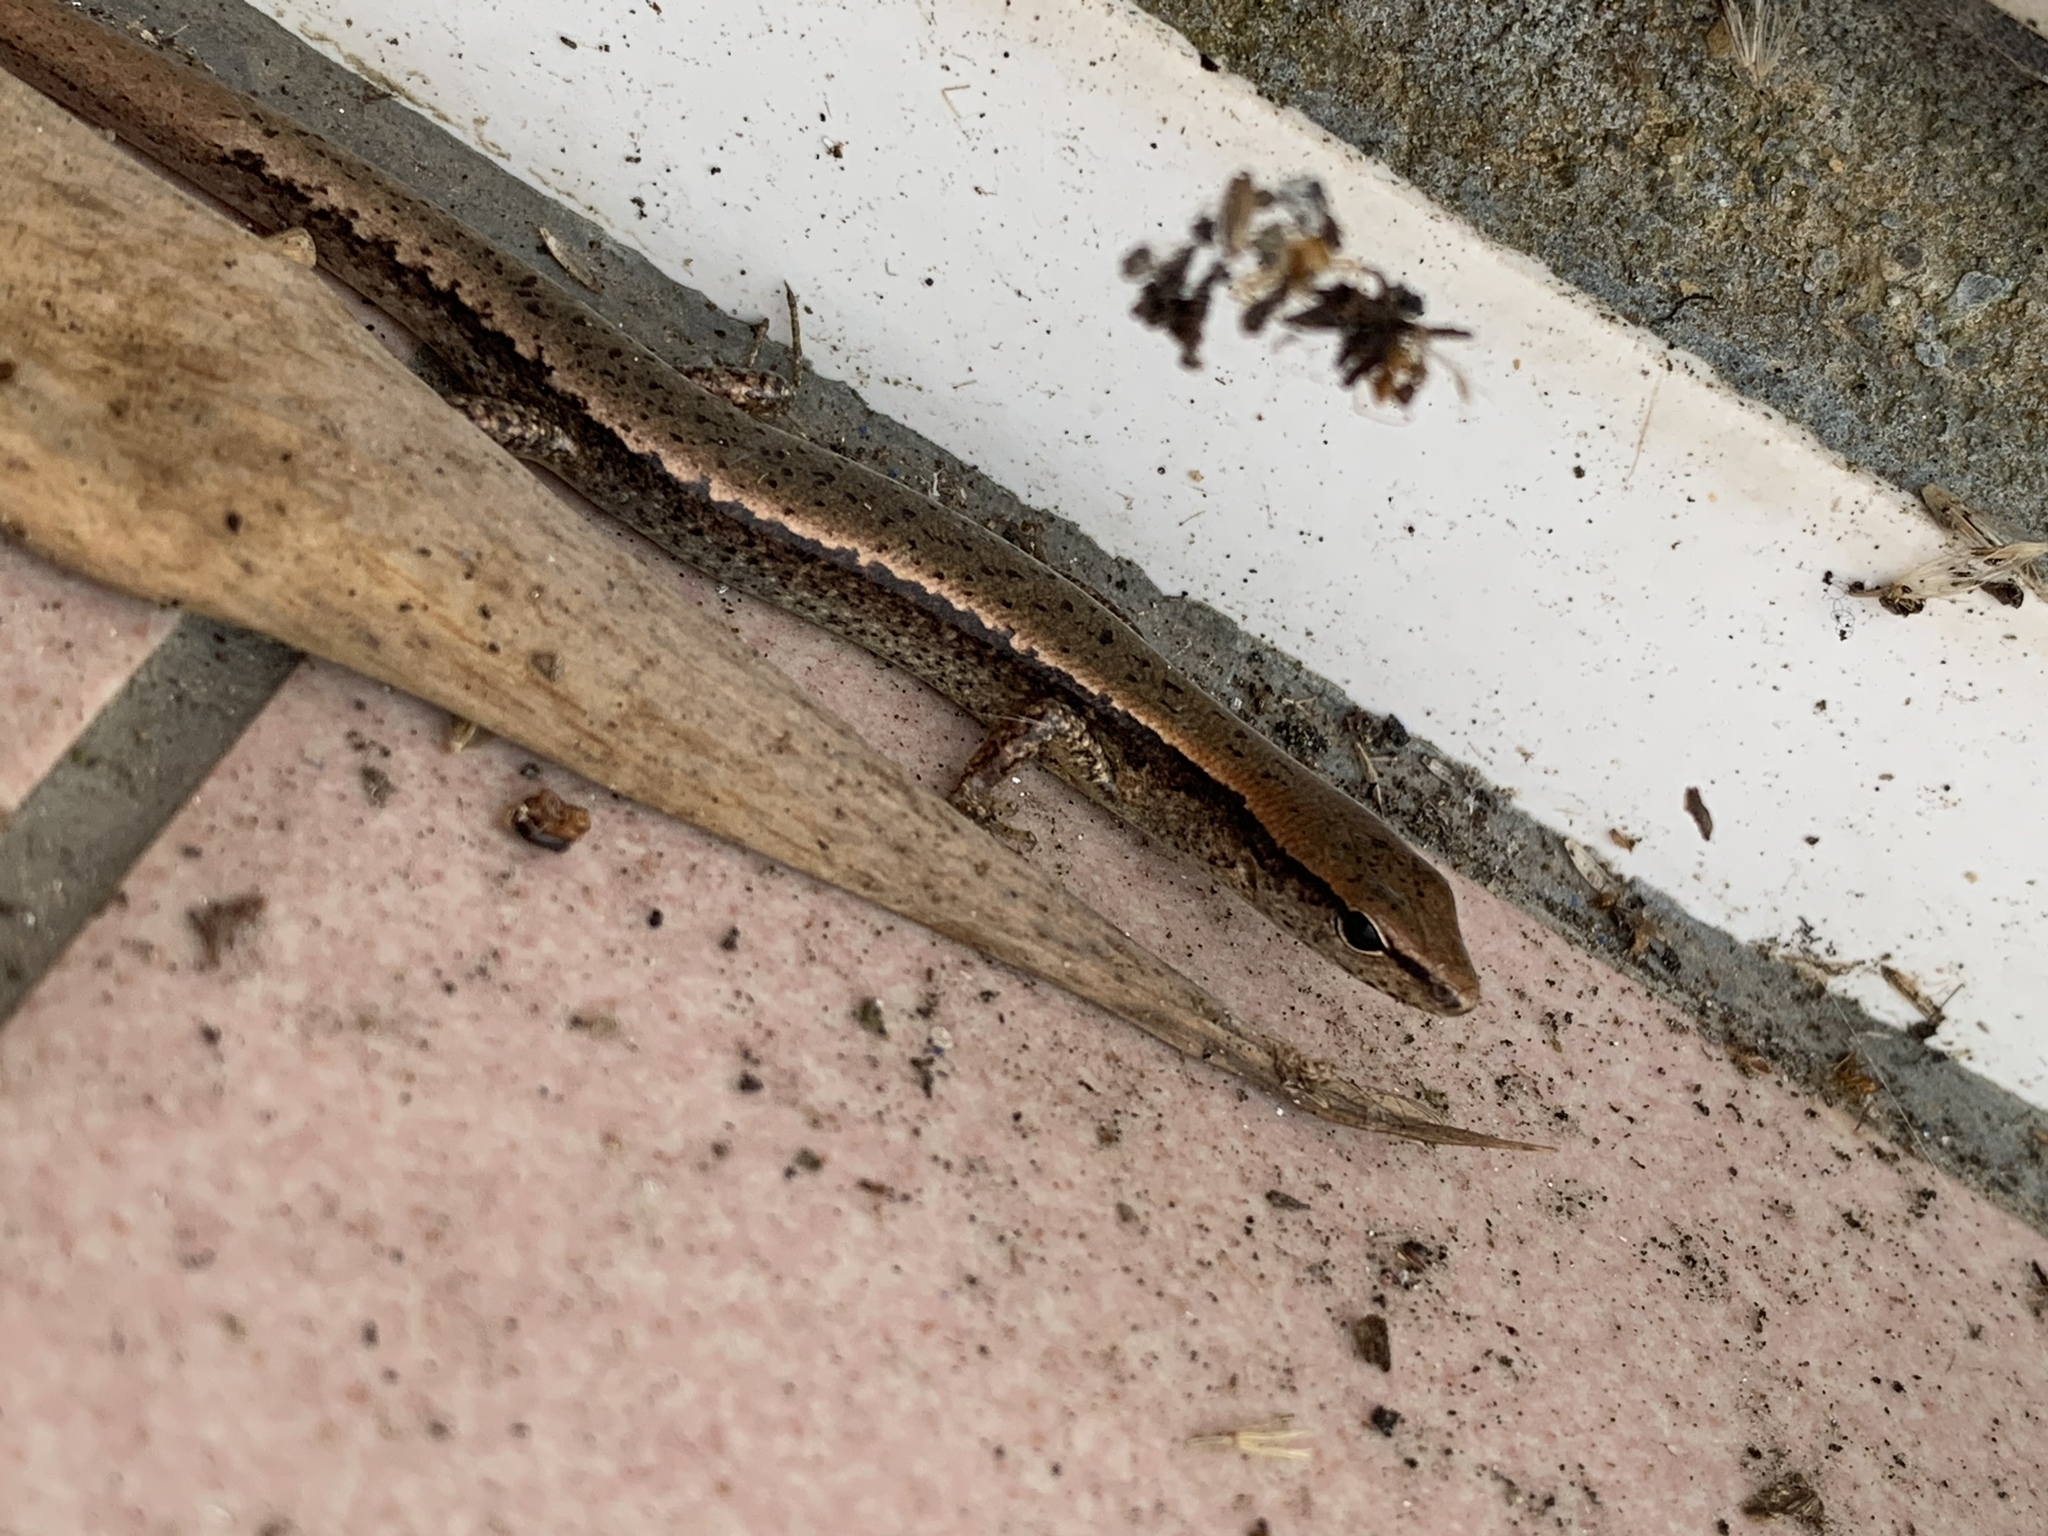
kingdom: Animalia
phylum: Chordata
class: Squamata
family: Scincidae
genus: Plestiodon
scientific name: Plestiodon elegans
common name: Shanghai elegant skink
